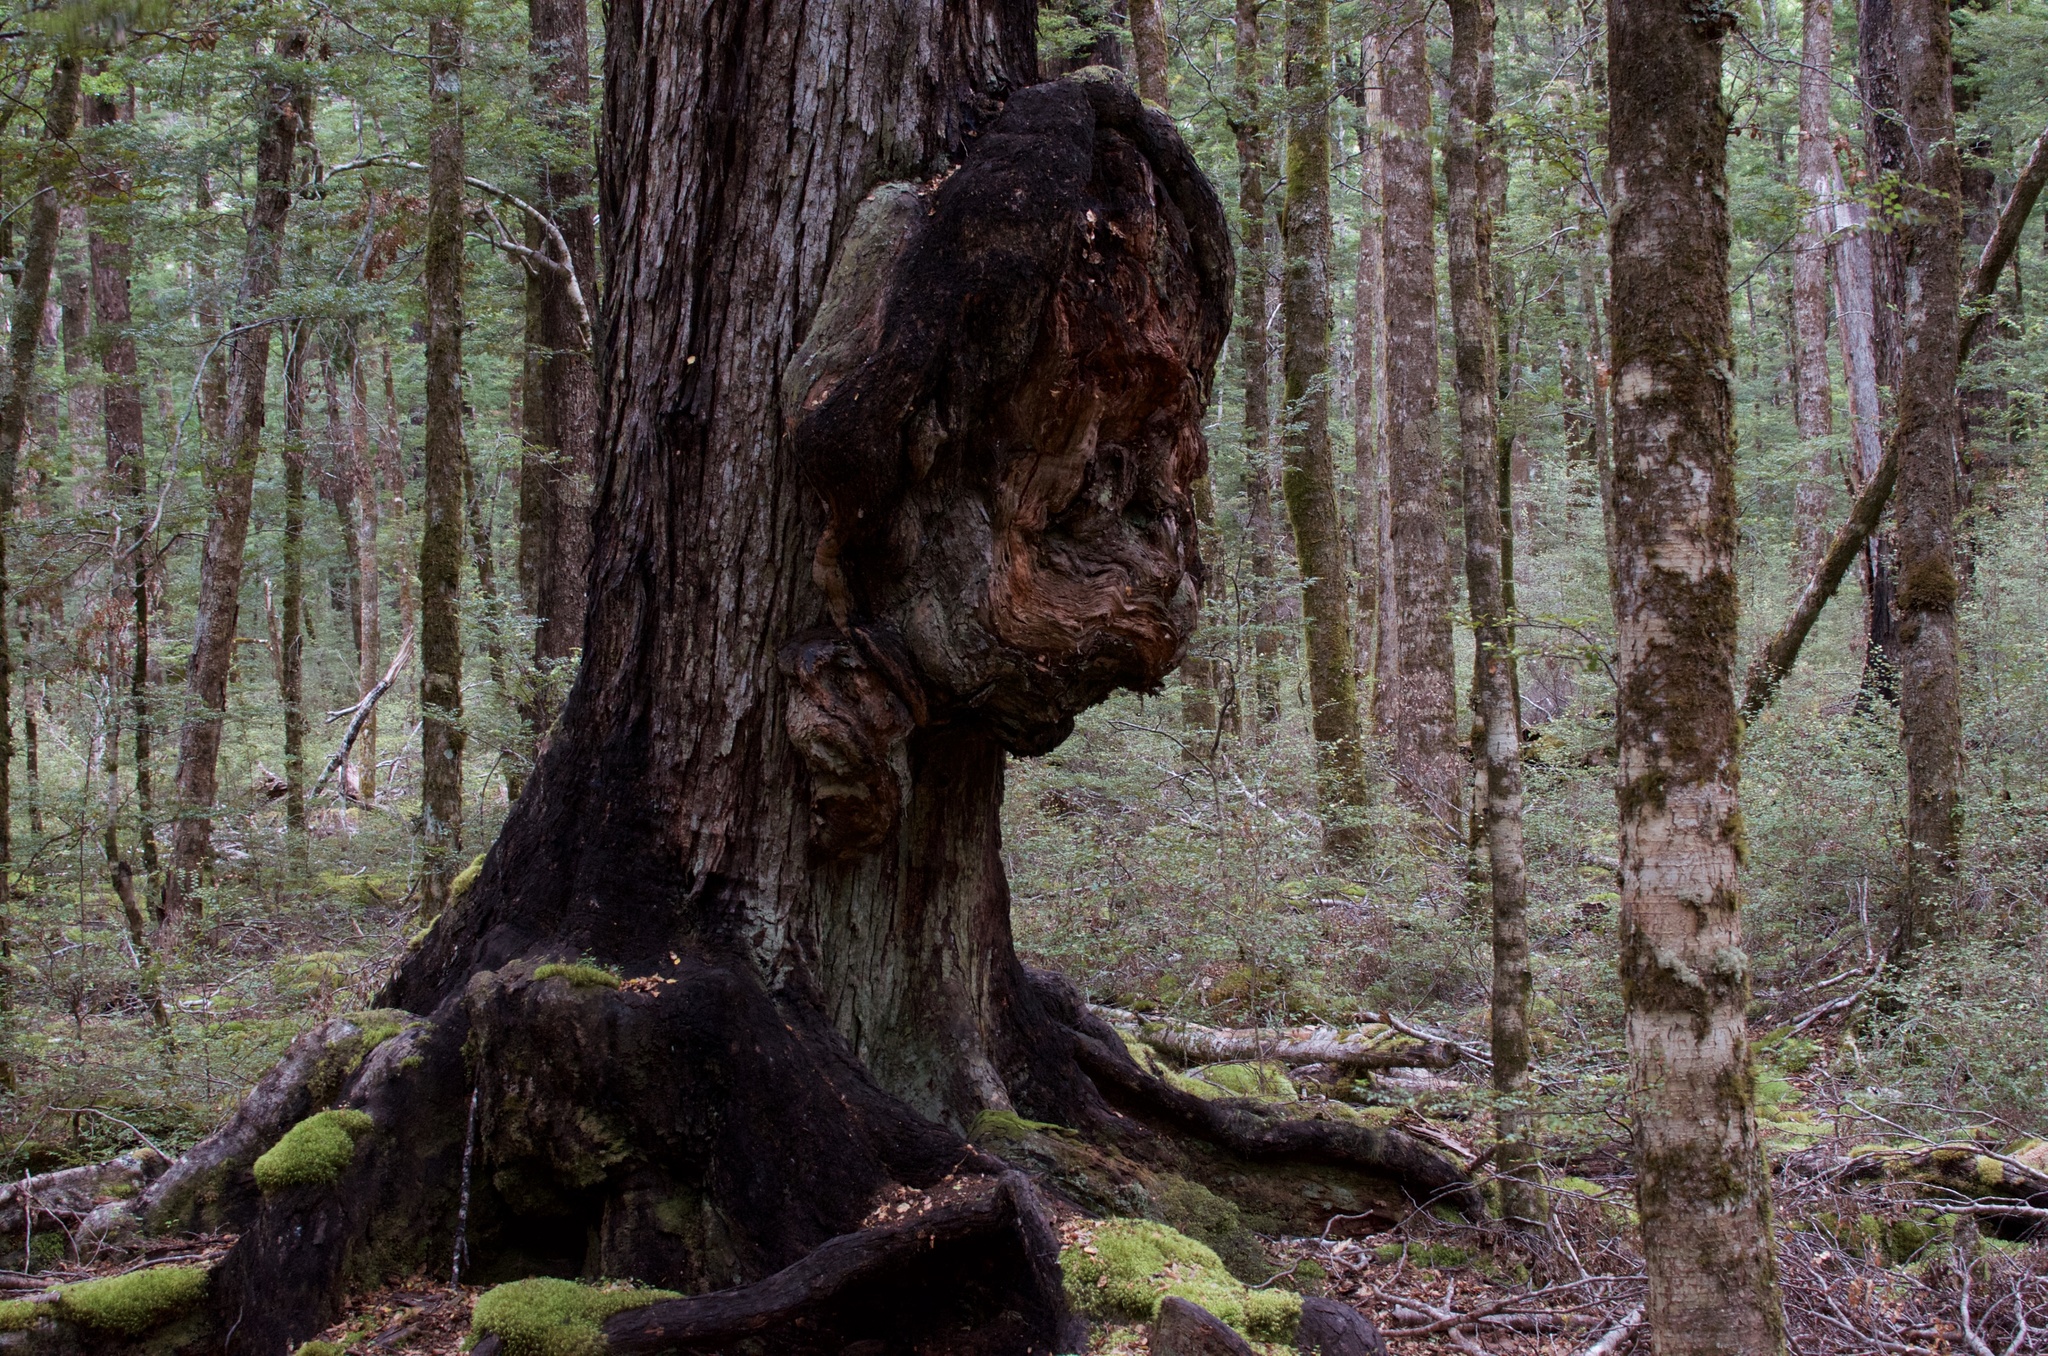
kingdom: Plantae
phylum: Tracheophyta
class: Magnoliopsida
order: Fagales
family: Nothofagaceae
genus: Nothofagus
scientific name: Nothofagus fusca
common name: Red beech
